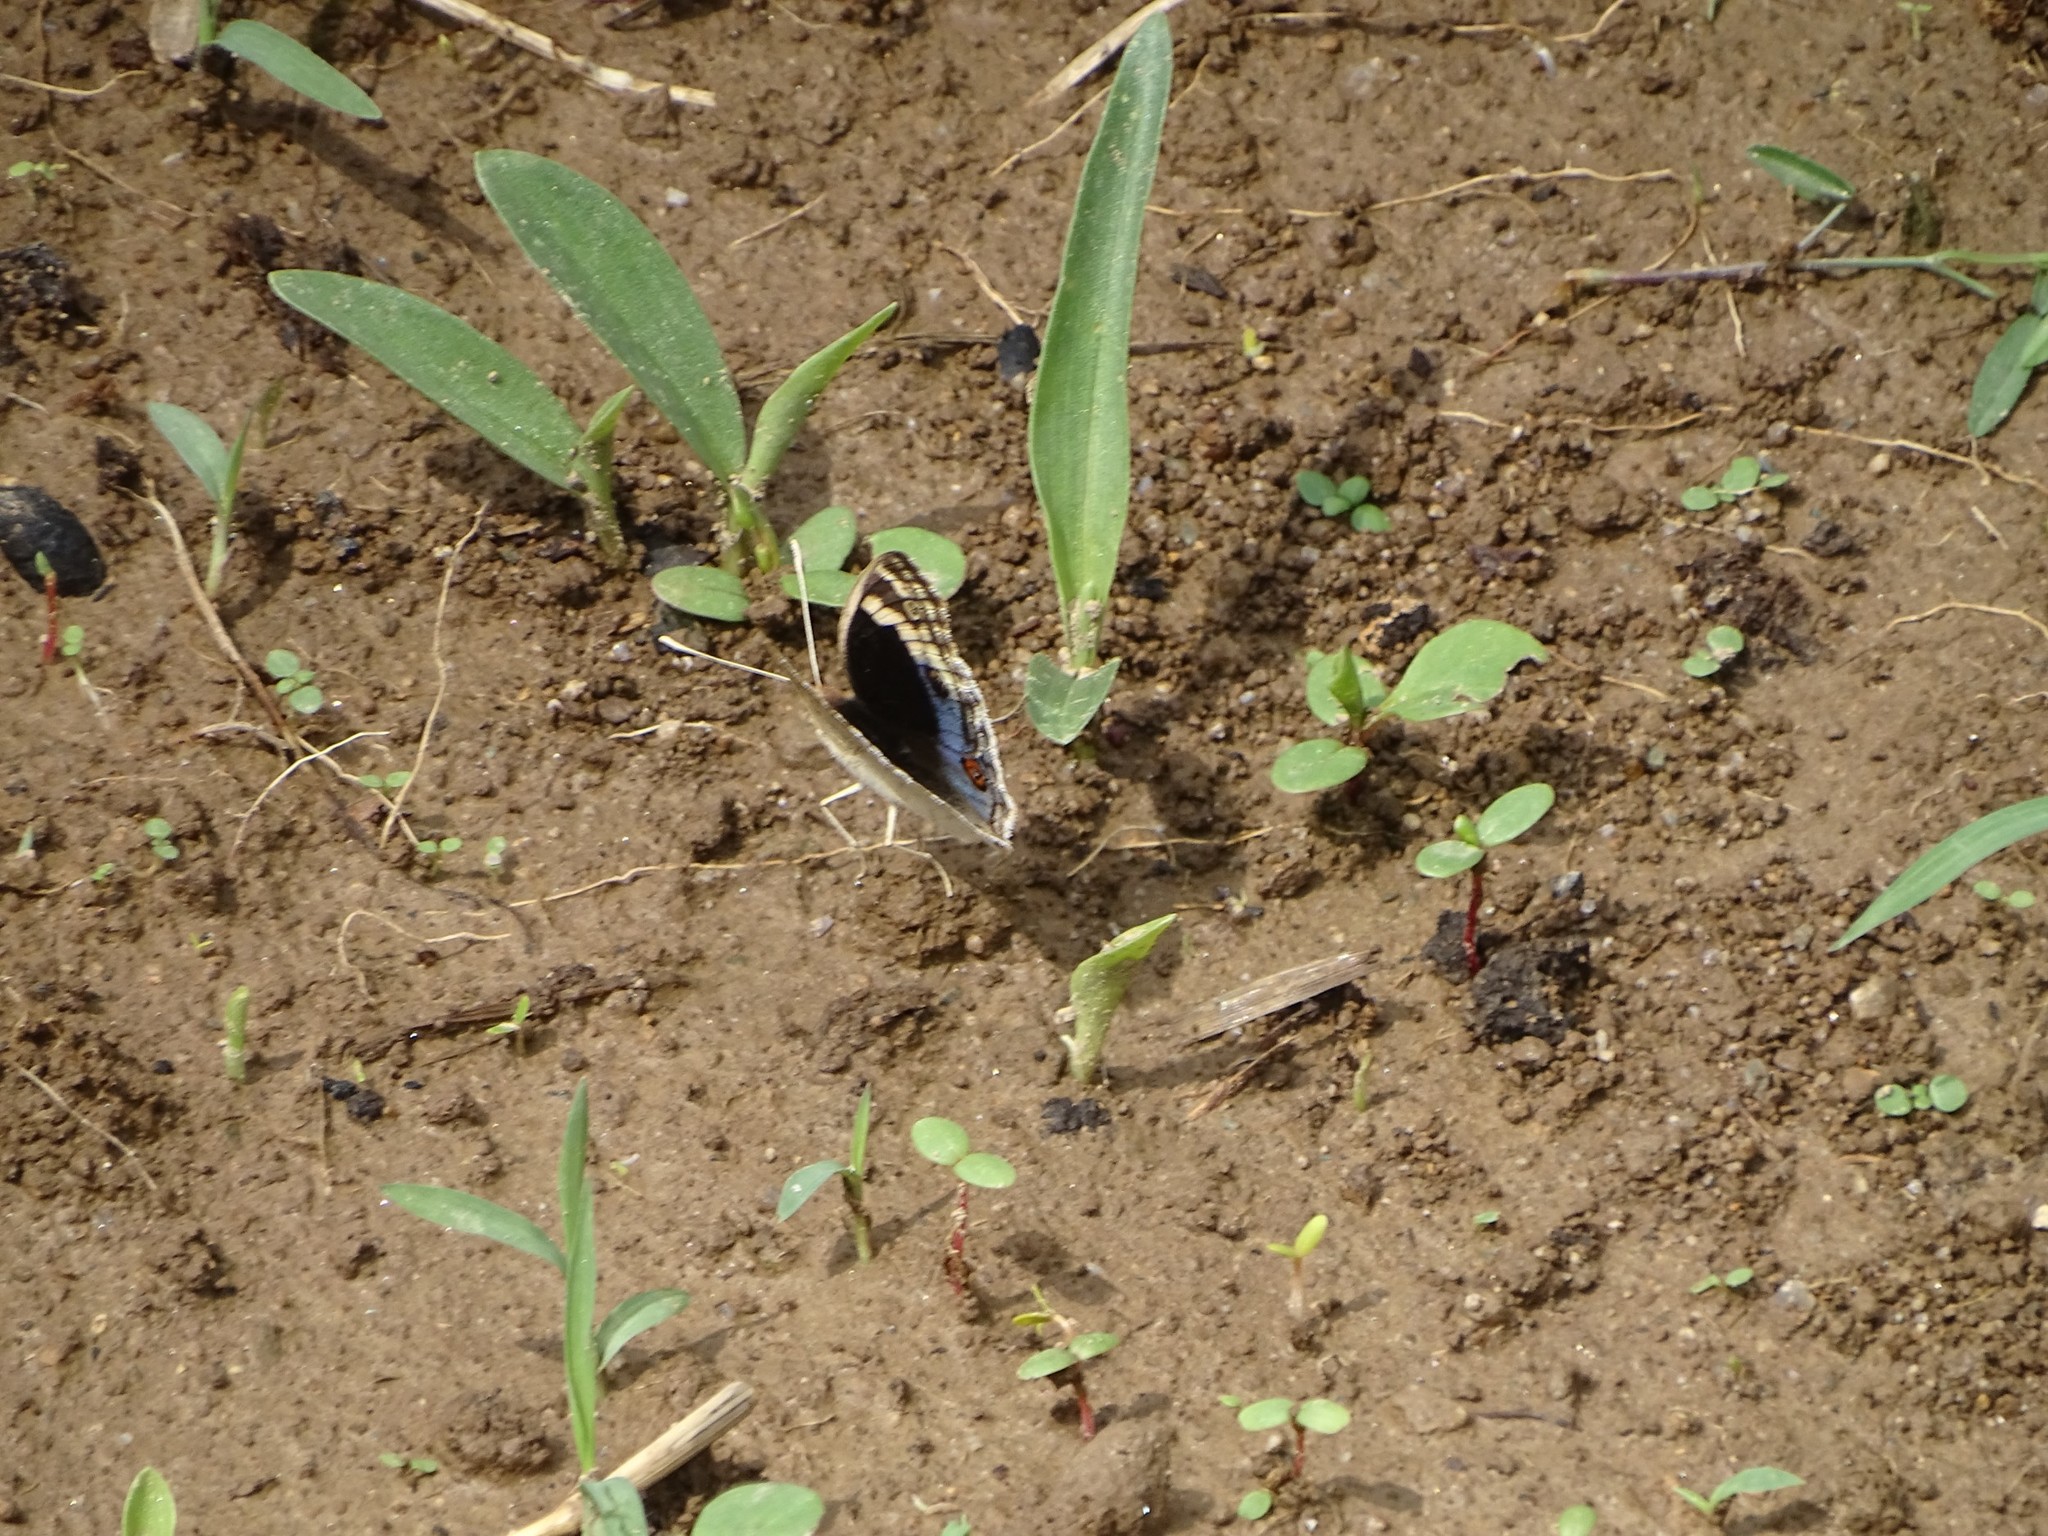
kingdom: Animalia
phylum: Arthropoda
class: Insecta
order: Lepidoptera
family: Nymphalidae
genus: Junonia
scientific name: Junonia orithya
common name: Blue pansy
